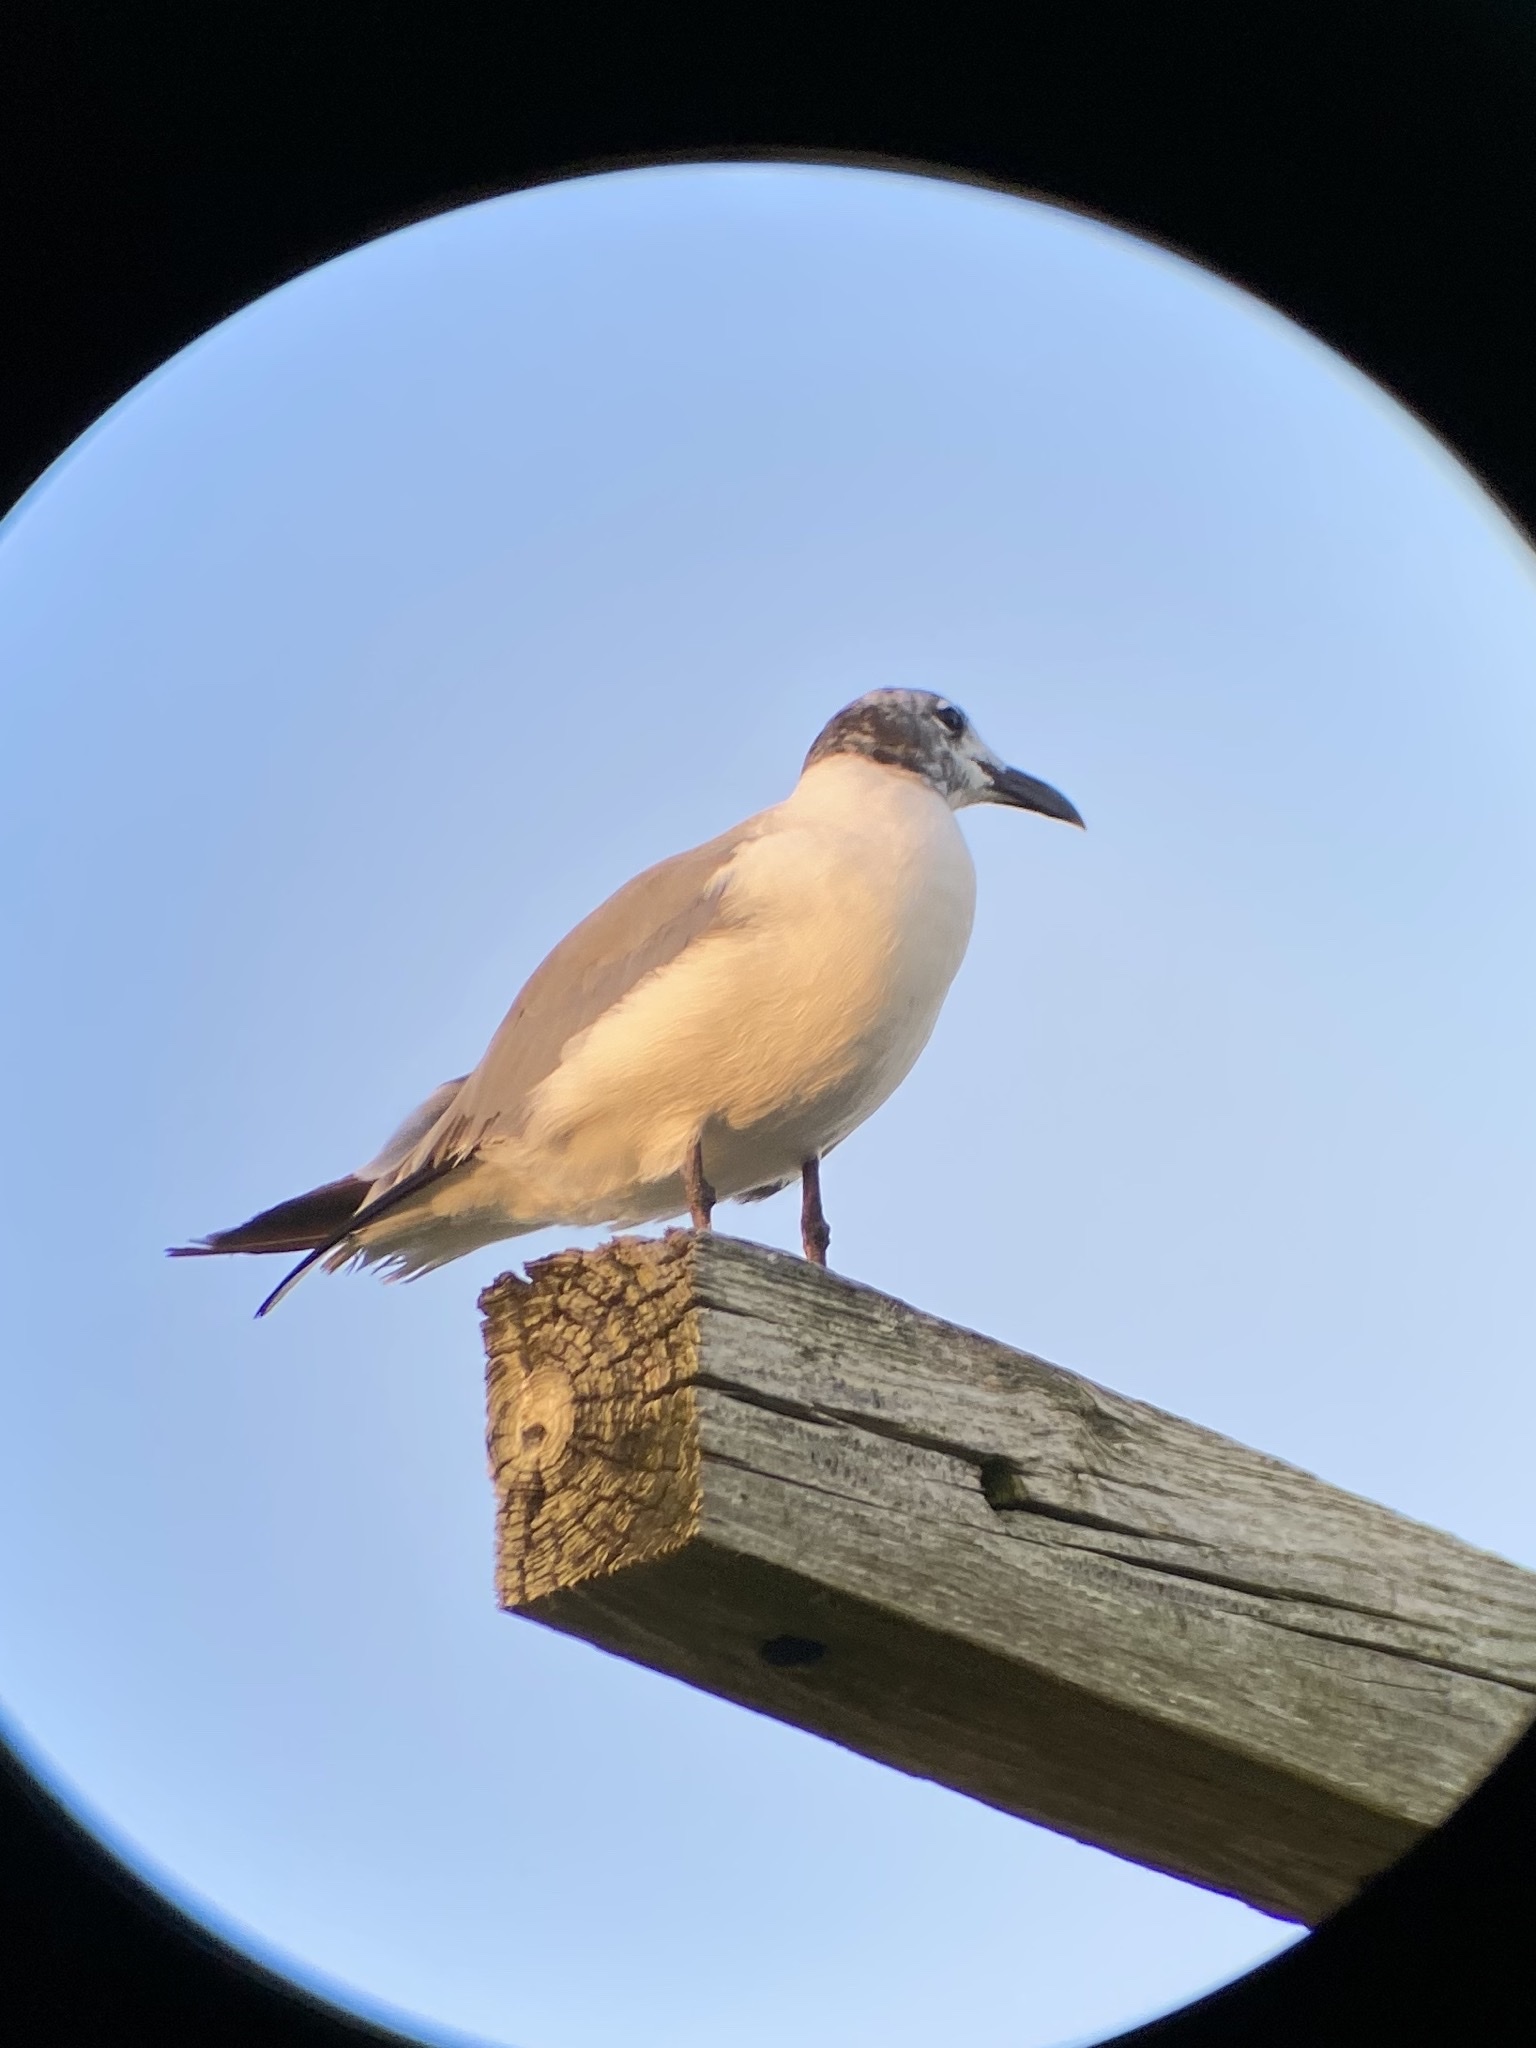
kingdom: Animalia
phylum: Chordata
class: Aves
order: Charadriiformes
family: Laridae
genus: Leucophaeus
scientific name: Leucophaeus atricilla
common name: Laughing gull
